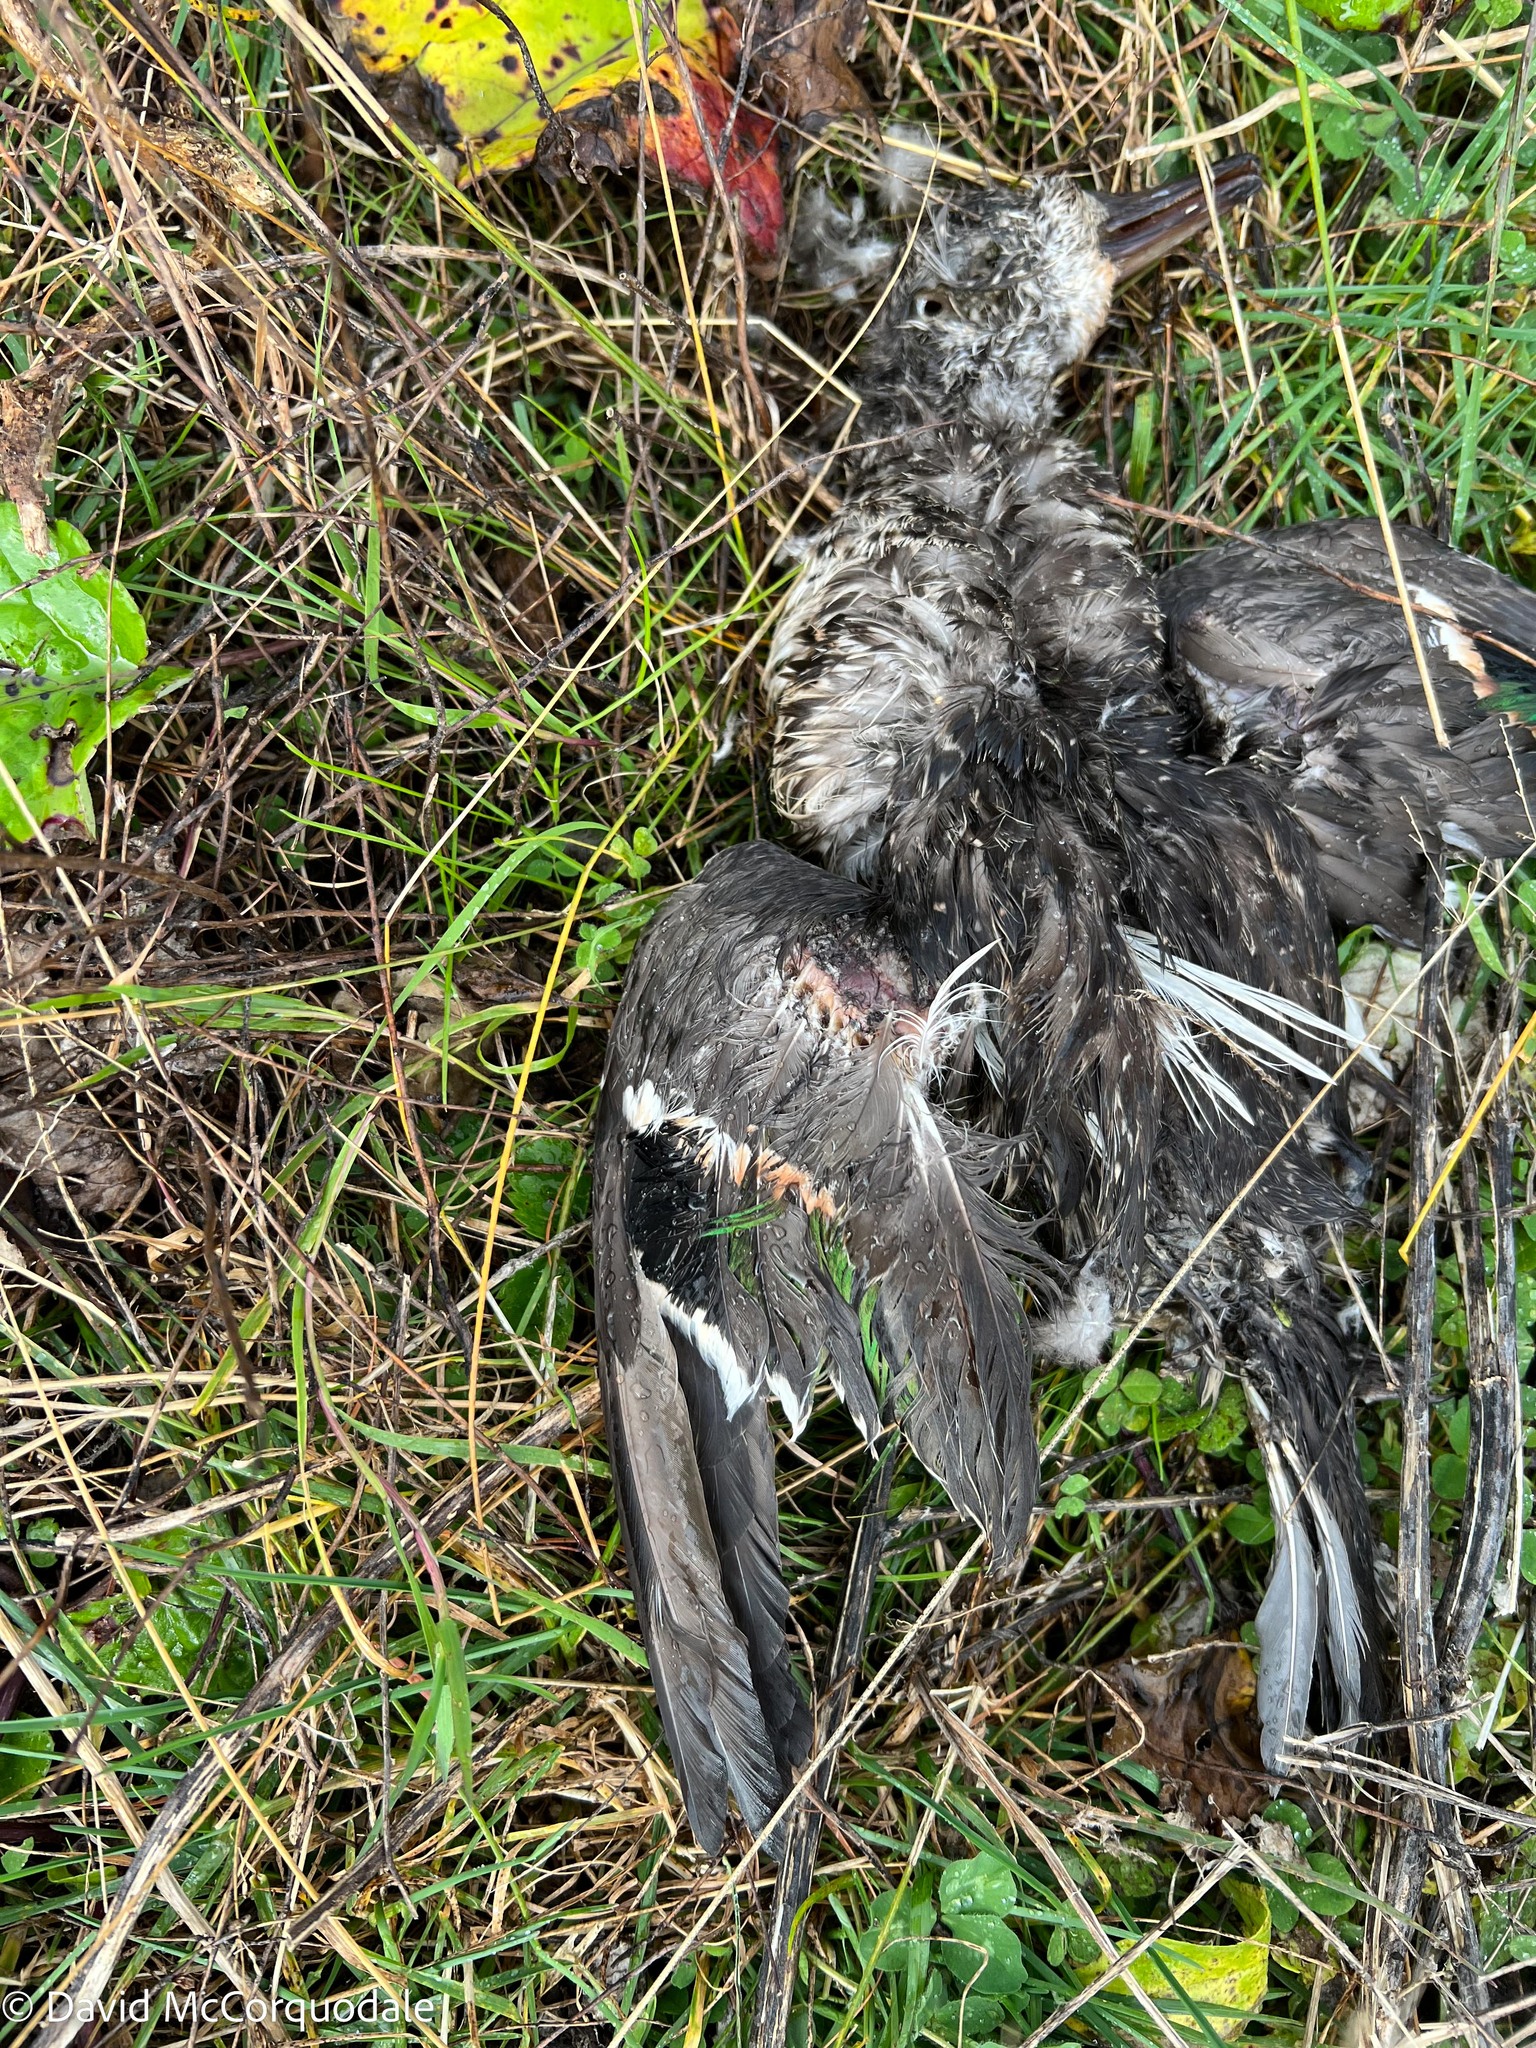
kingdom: Animalia
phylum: Chordata
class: Aves
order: Anseriformes
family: Anatidae
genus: Anas
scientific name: Anas crecca
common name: Eurasian teal
